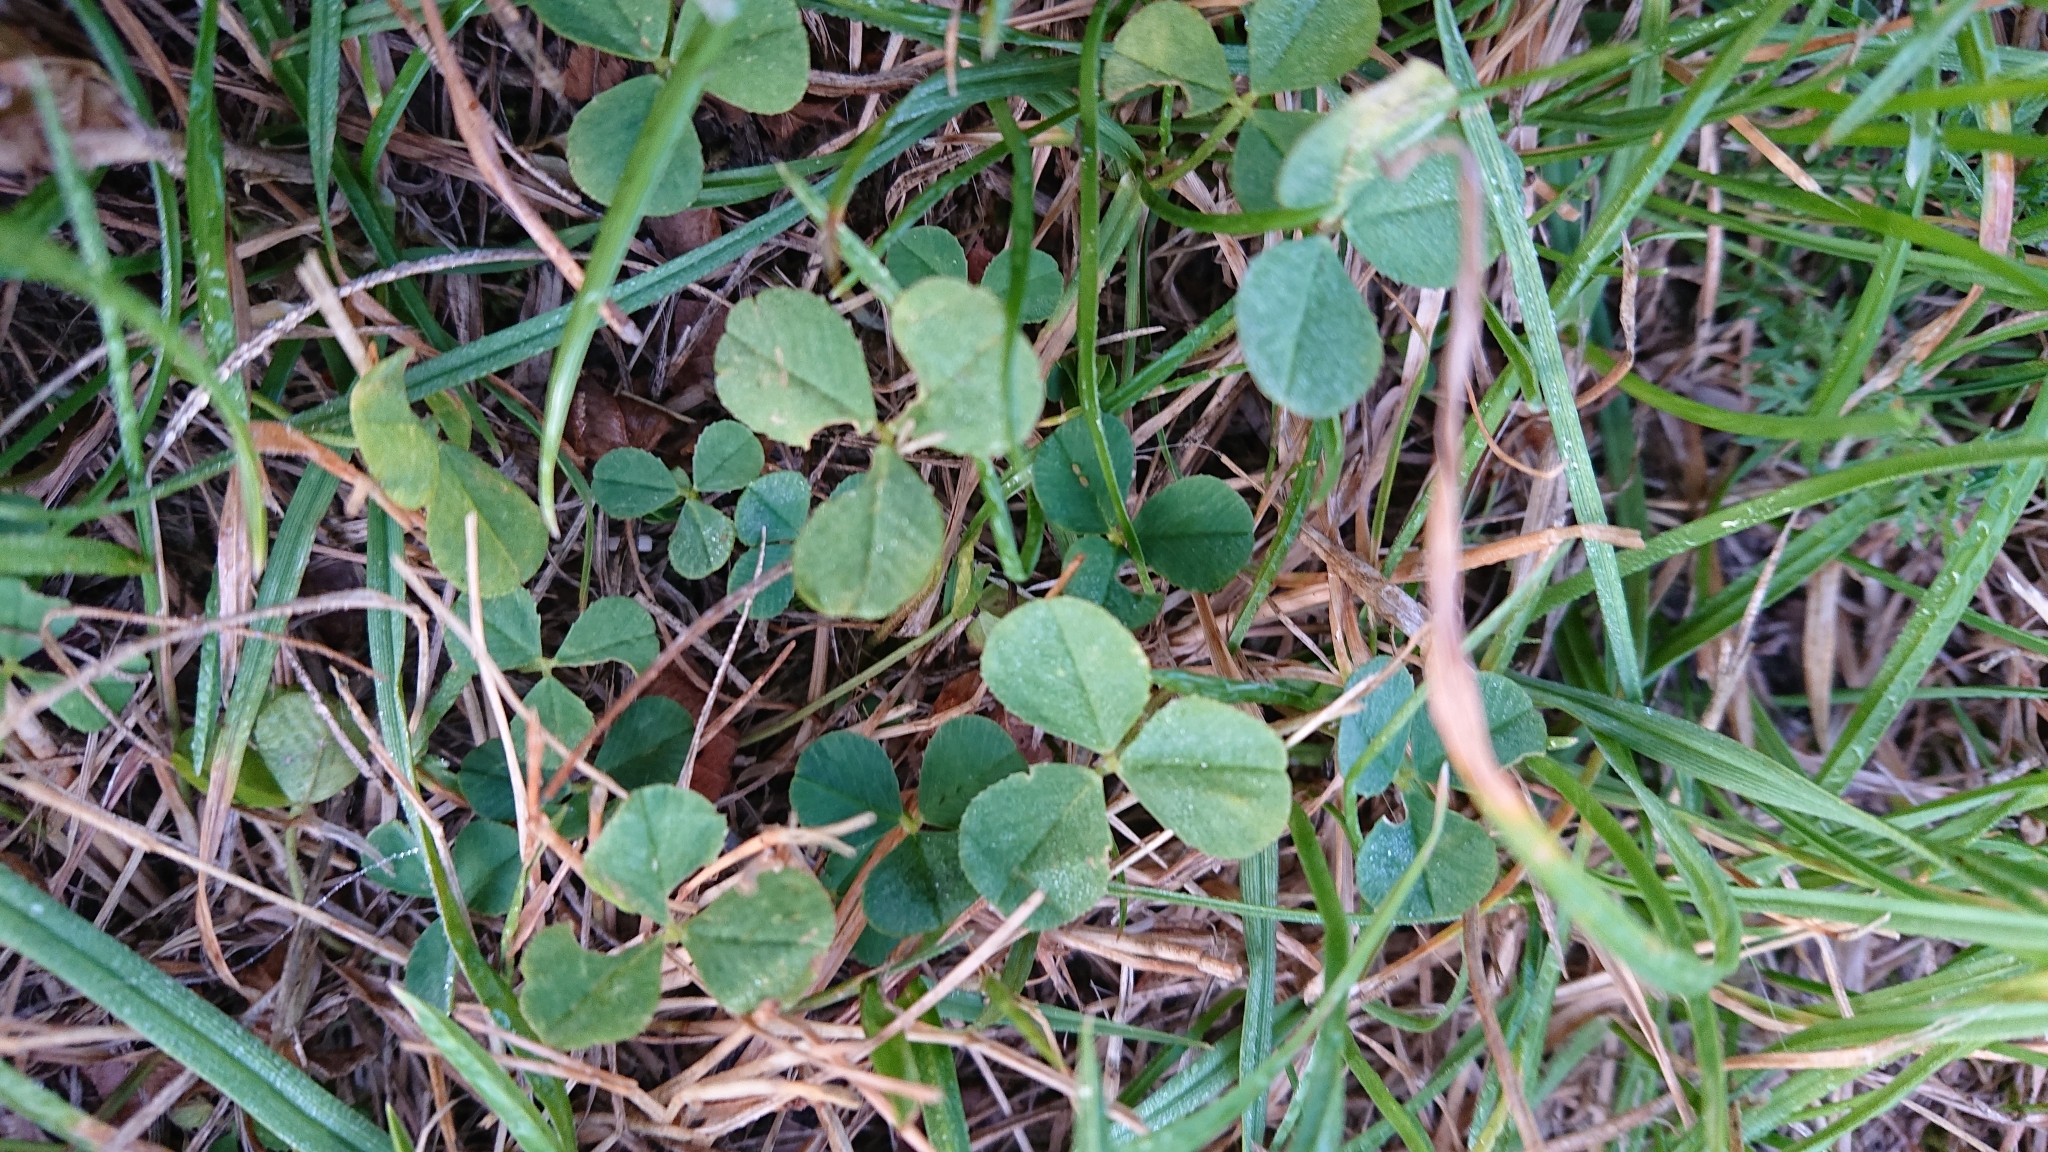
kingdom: Plantae
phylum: Tracheophyta
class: Magnoliopsida
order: Fabales
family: Fabaceae
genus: Trifolium
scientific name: Trifolium repens
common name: White clover
